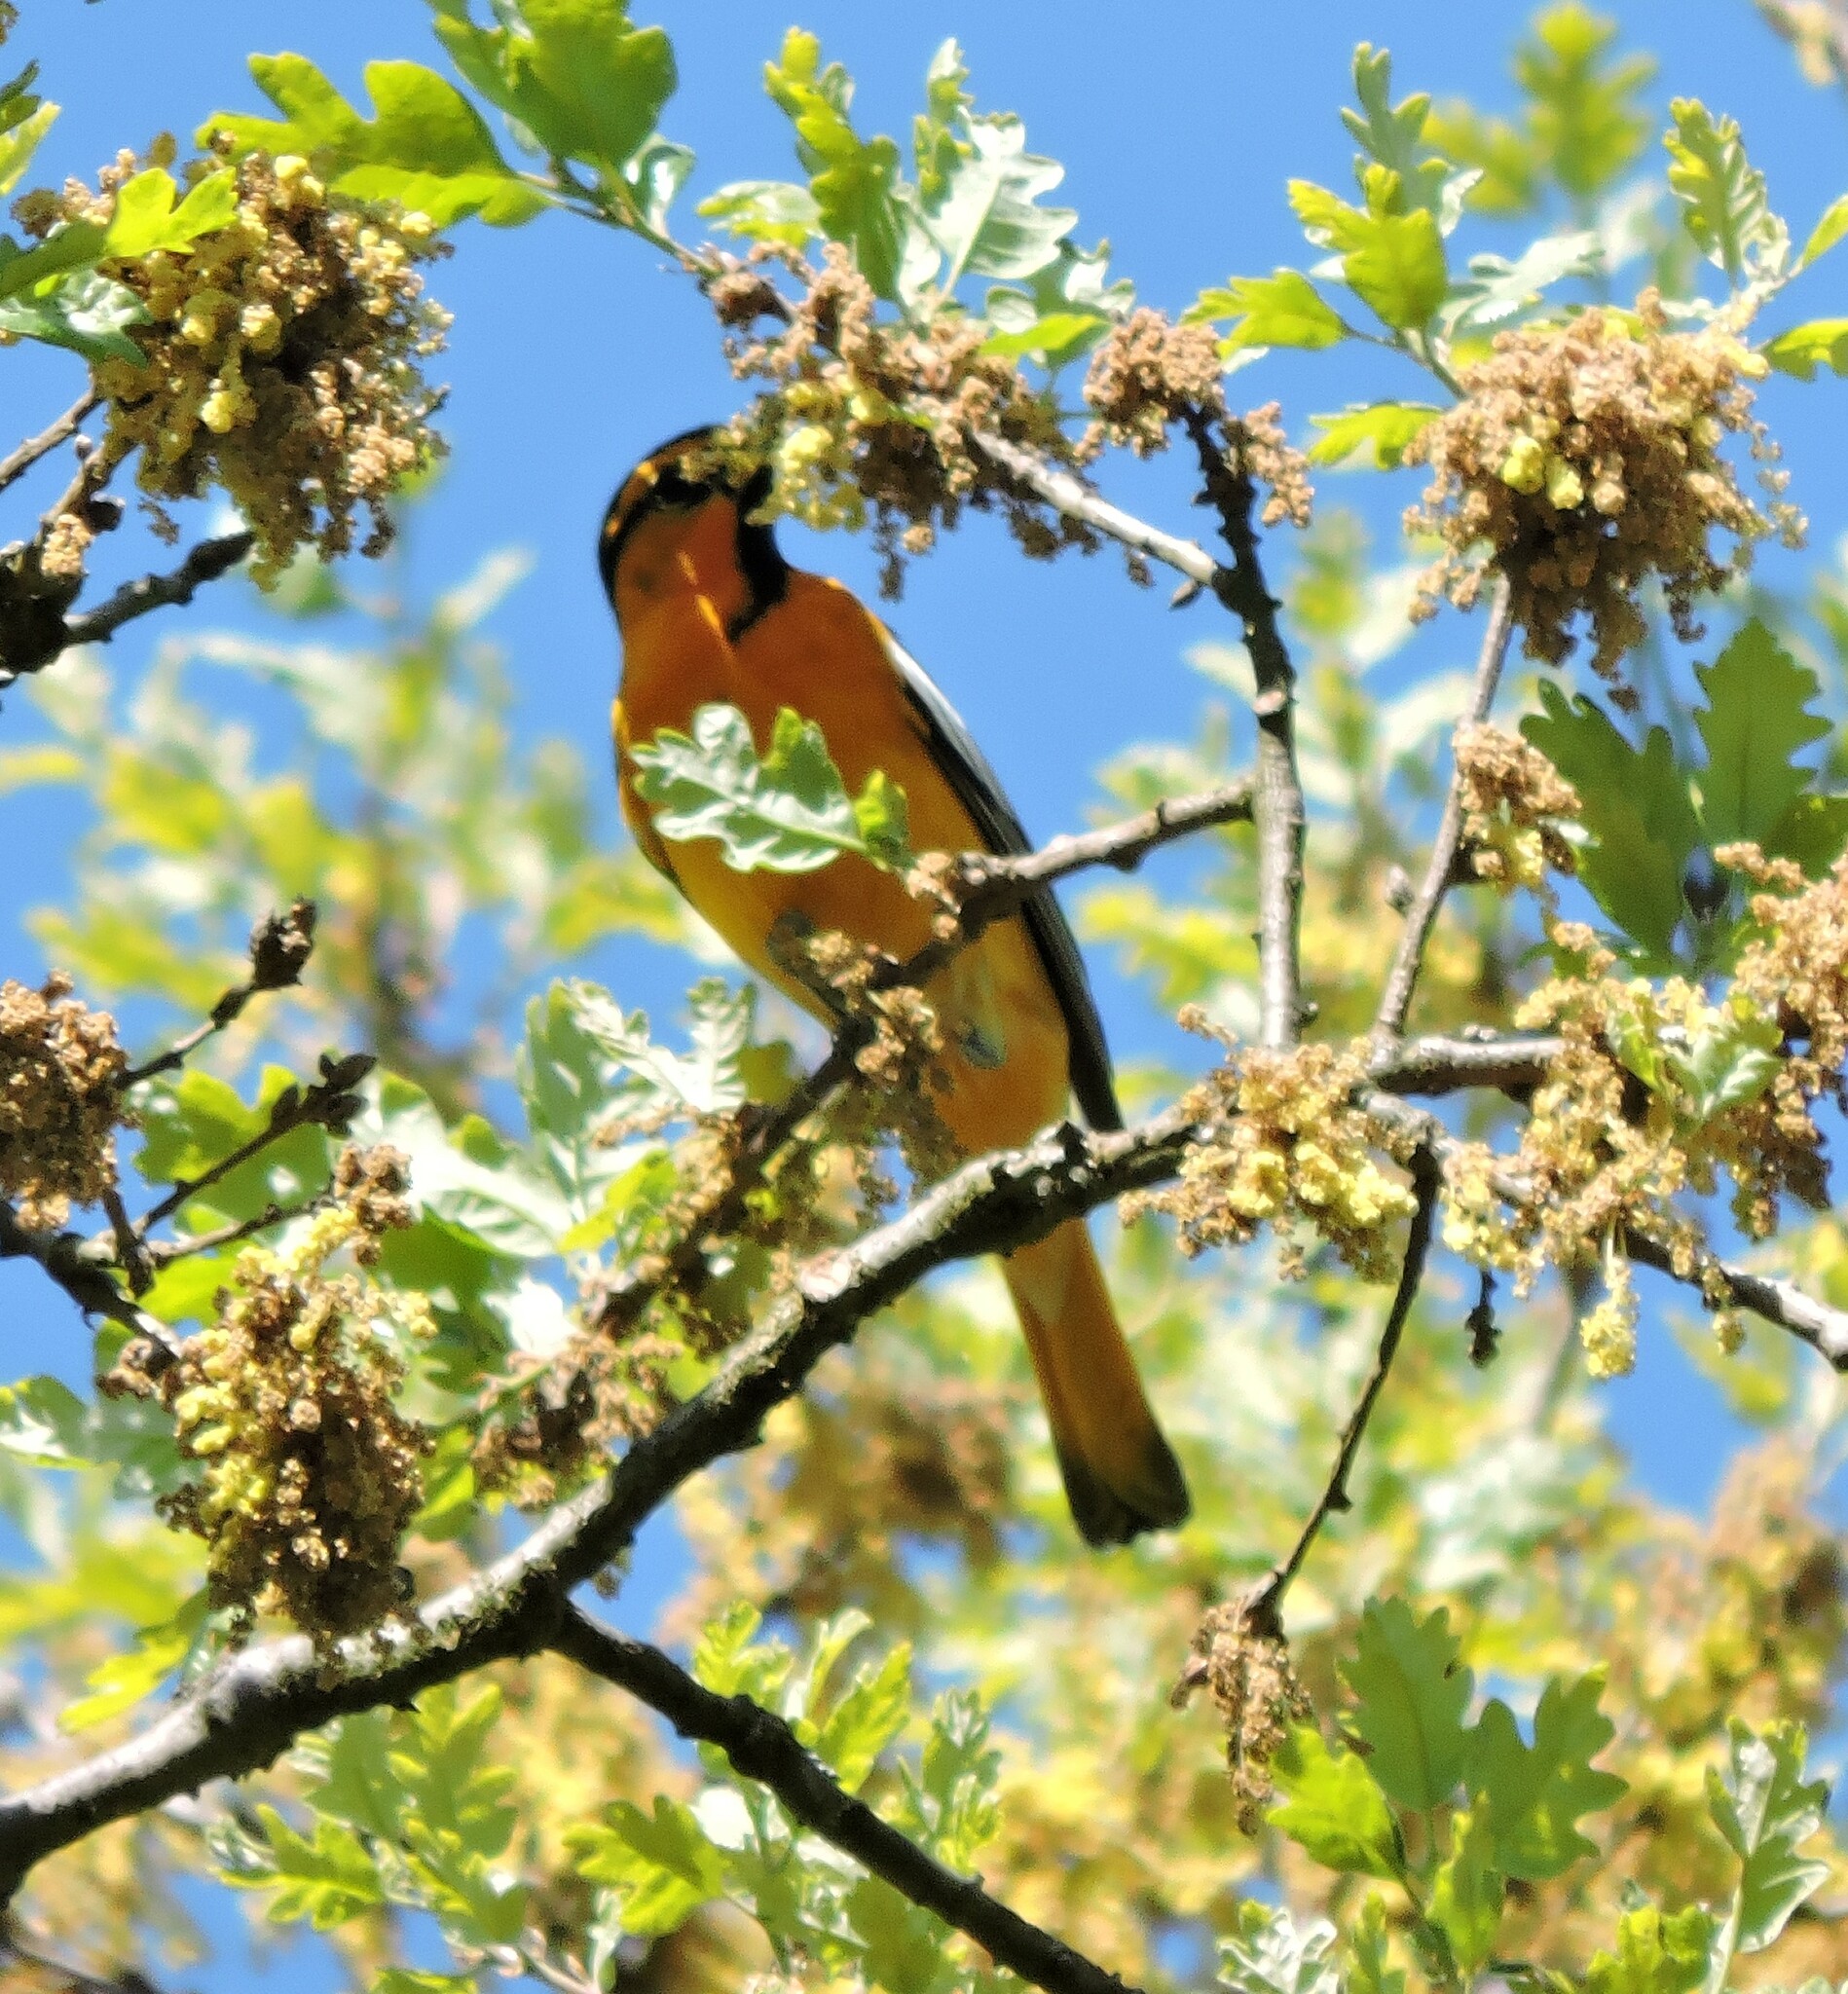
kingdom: Animalia
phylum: Chordata
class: Aves
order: Passeriformes
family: Icteridae
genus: Icterus
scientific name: Icterus bullockii
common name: Bullock's oriole
